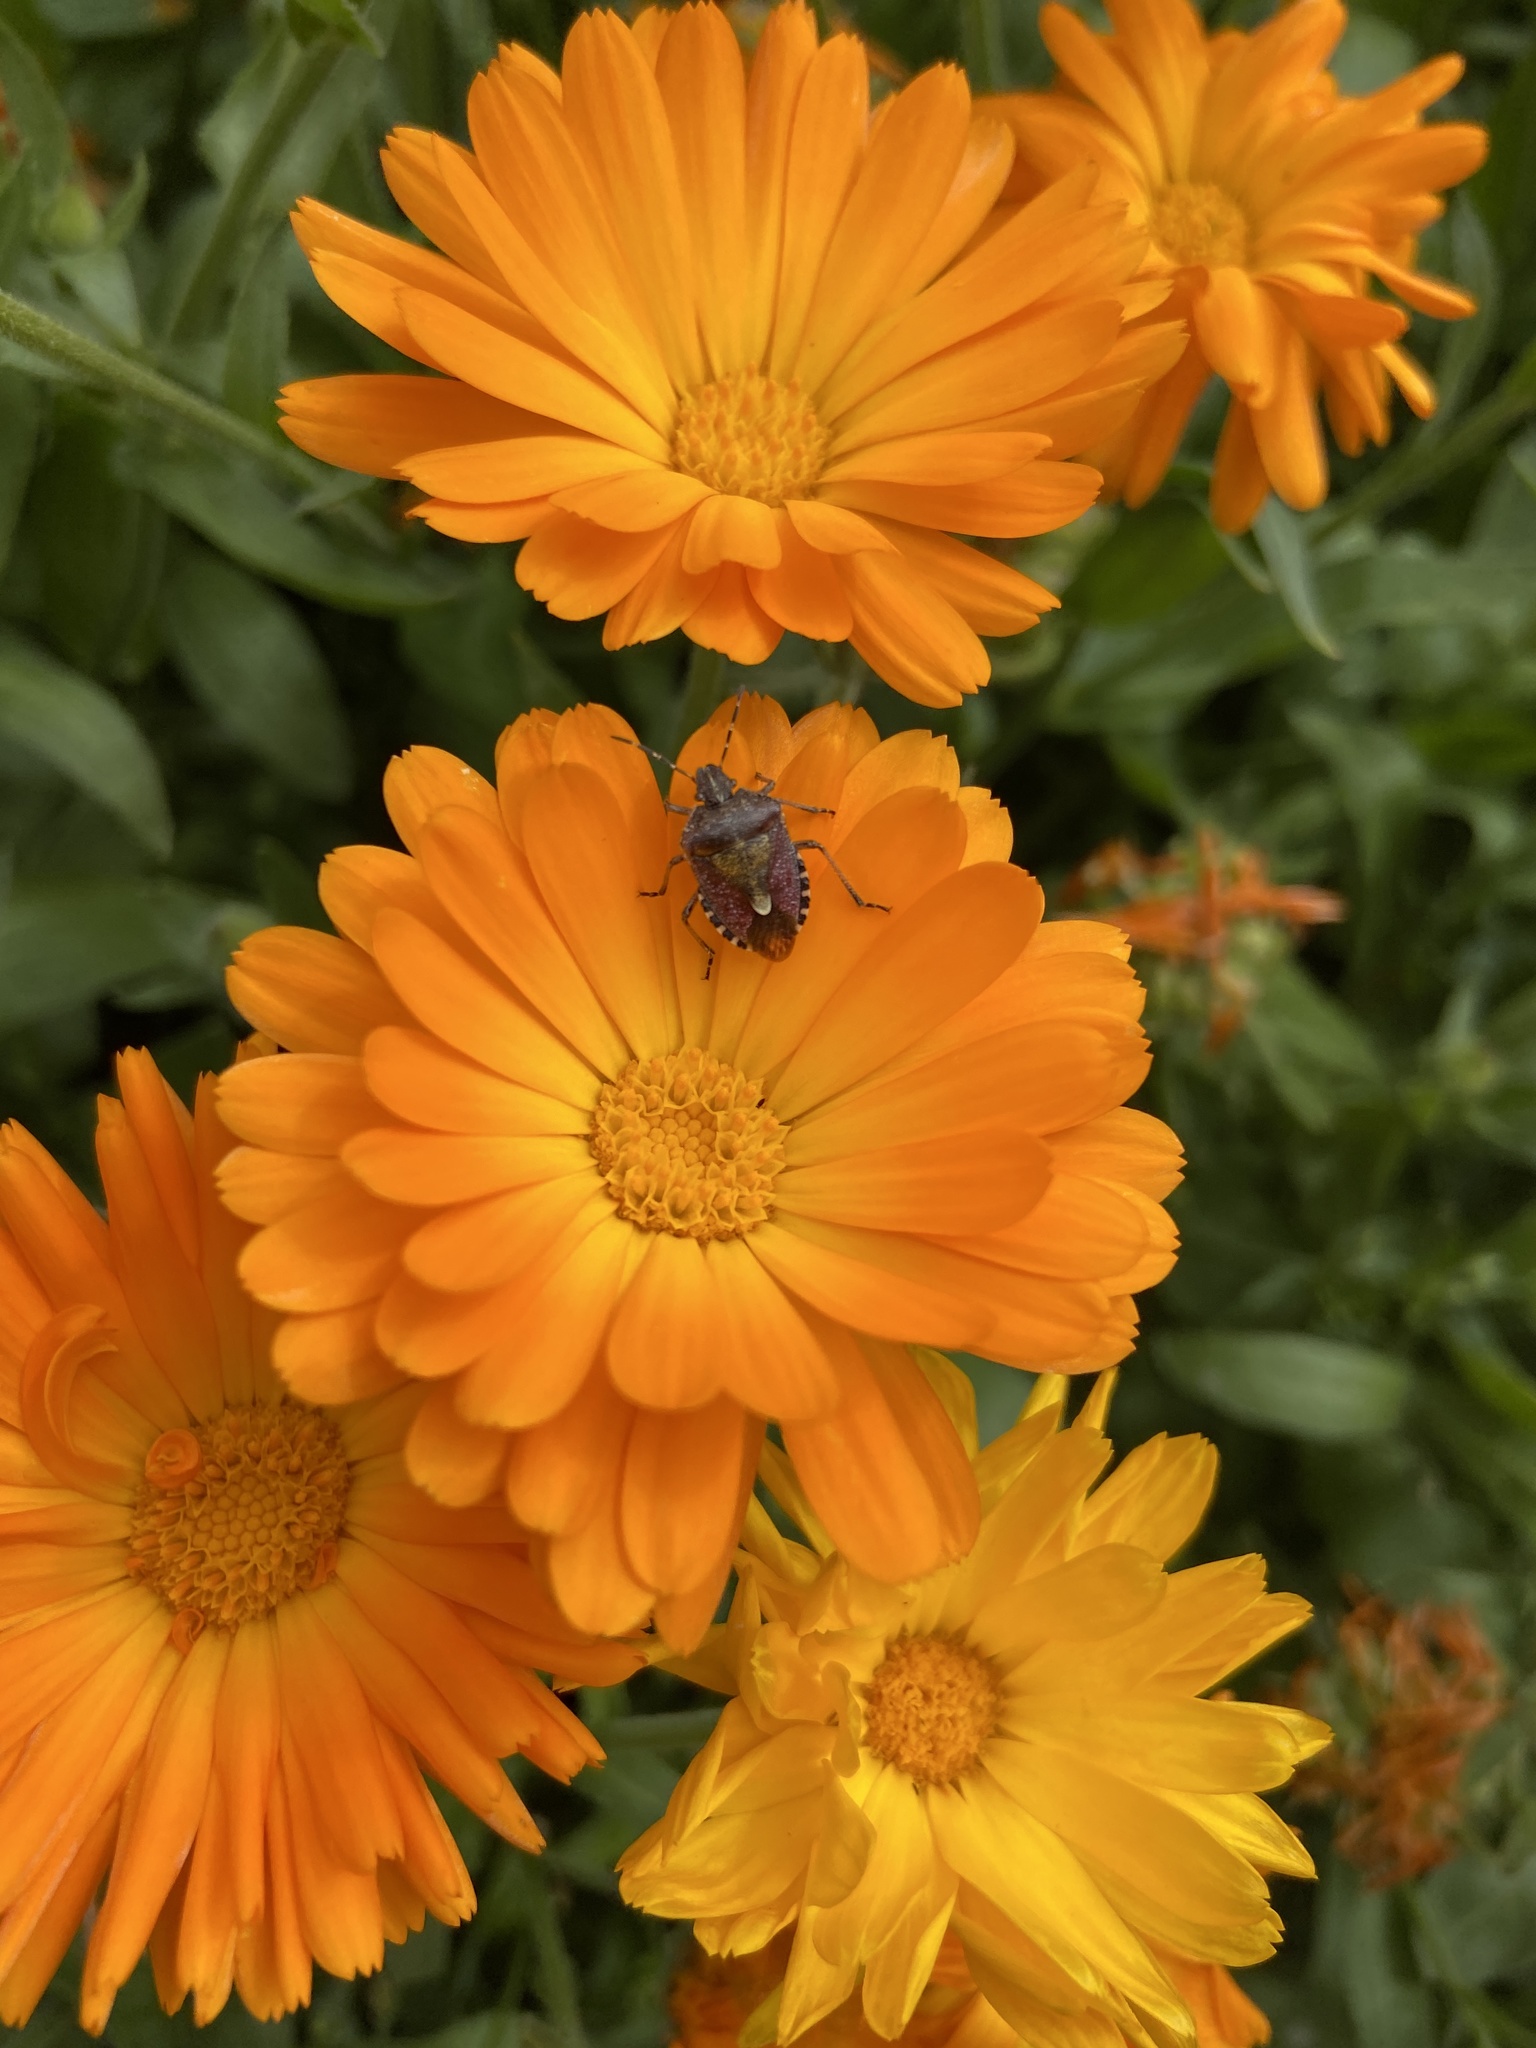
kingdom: Animalia
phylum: Arthropoda
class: Insecta
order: Hemiptera
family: Pentatomidae
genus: Dolycoris
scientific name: Dolycoris baccarum
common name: Sloe bug
